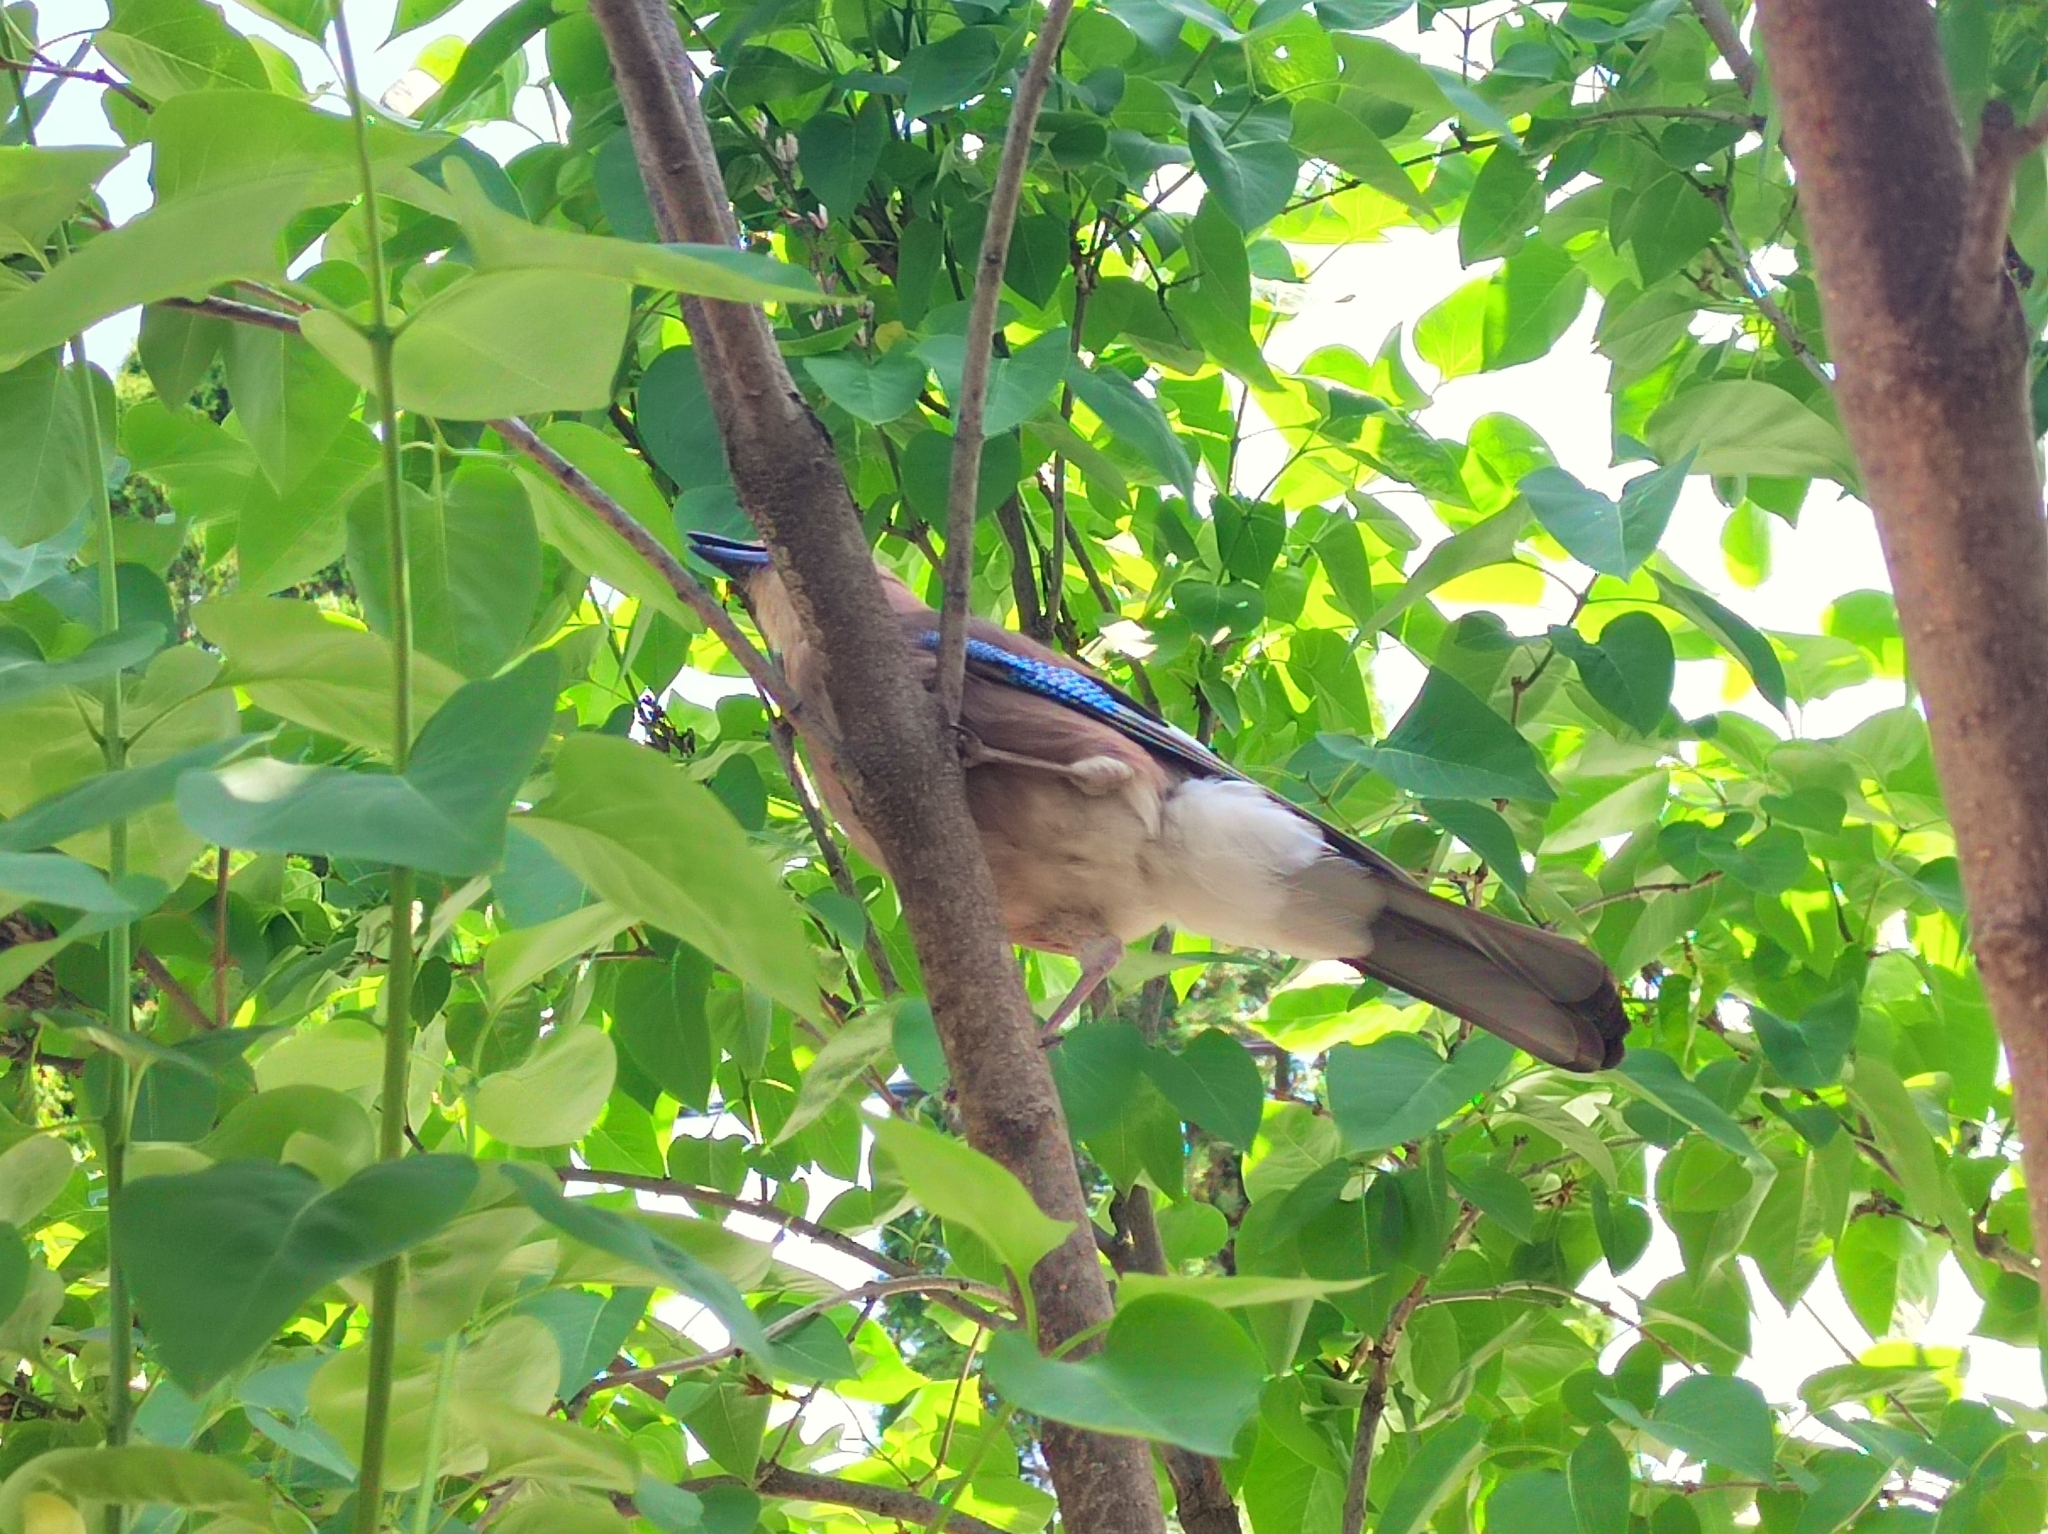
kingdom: Animalia
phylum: Chordata
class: Aves
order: Passeriformes
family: Corvidae
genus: Garrulus
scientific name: Garrulus glandarius
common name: Eurasian jay
